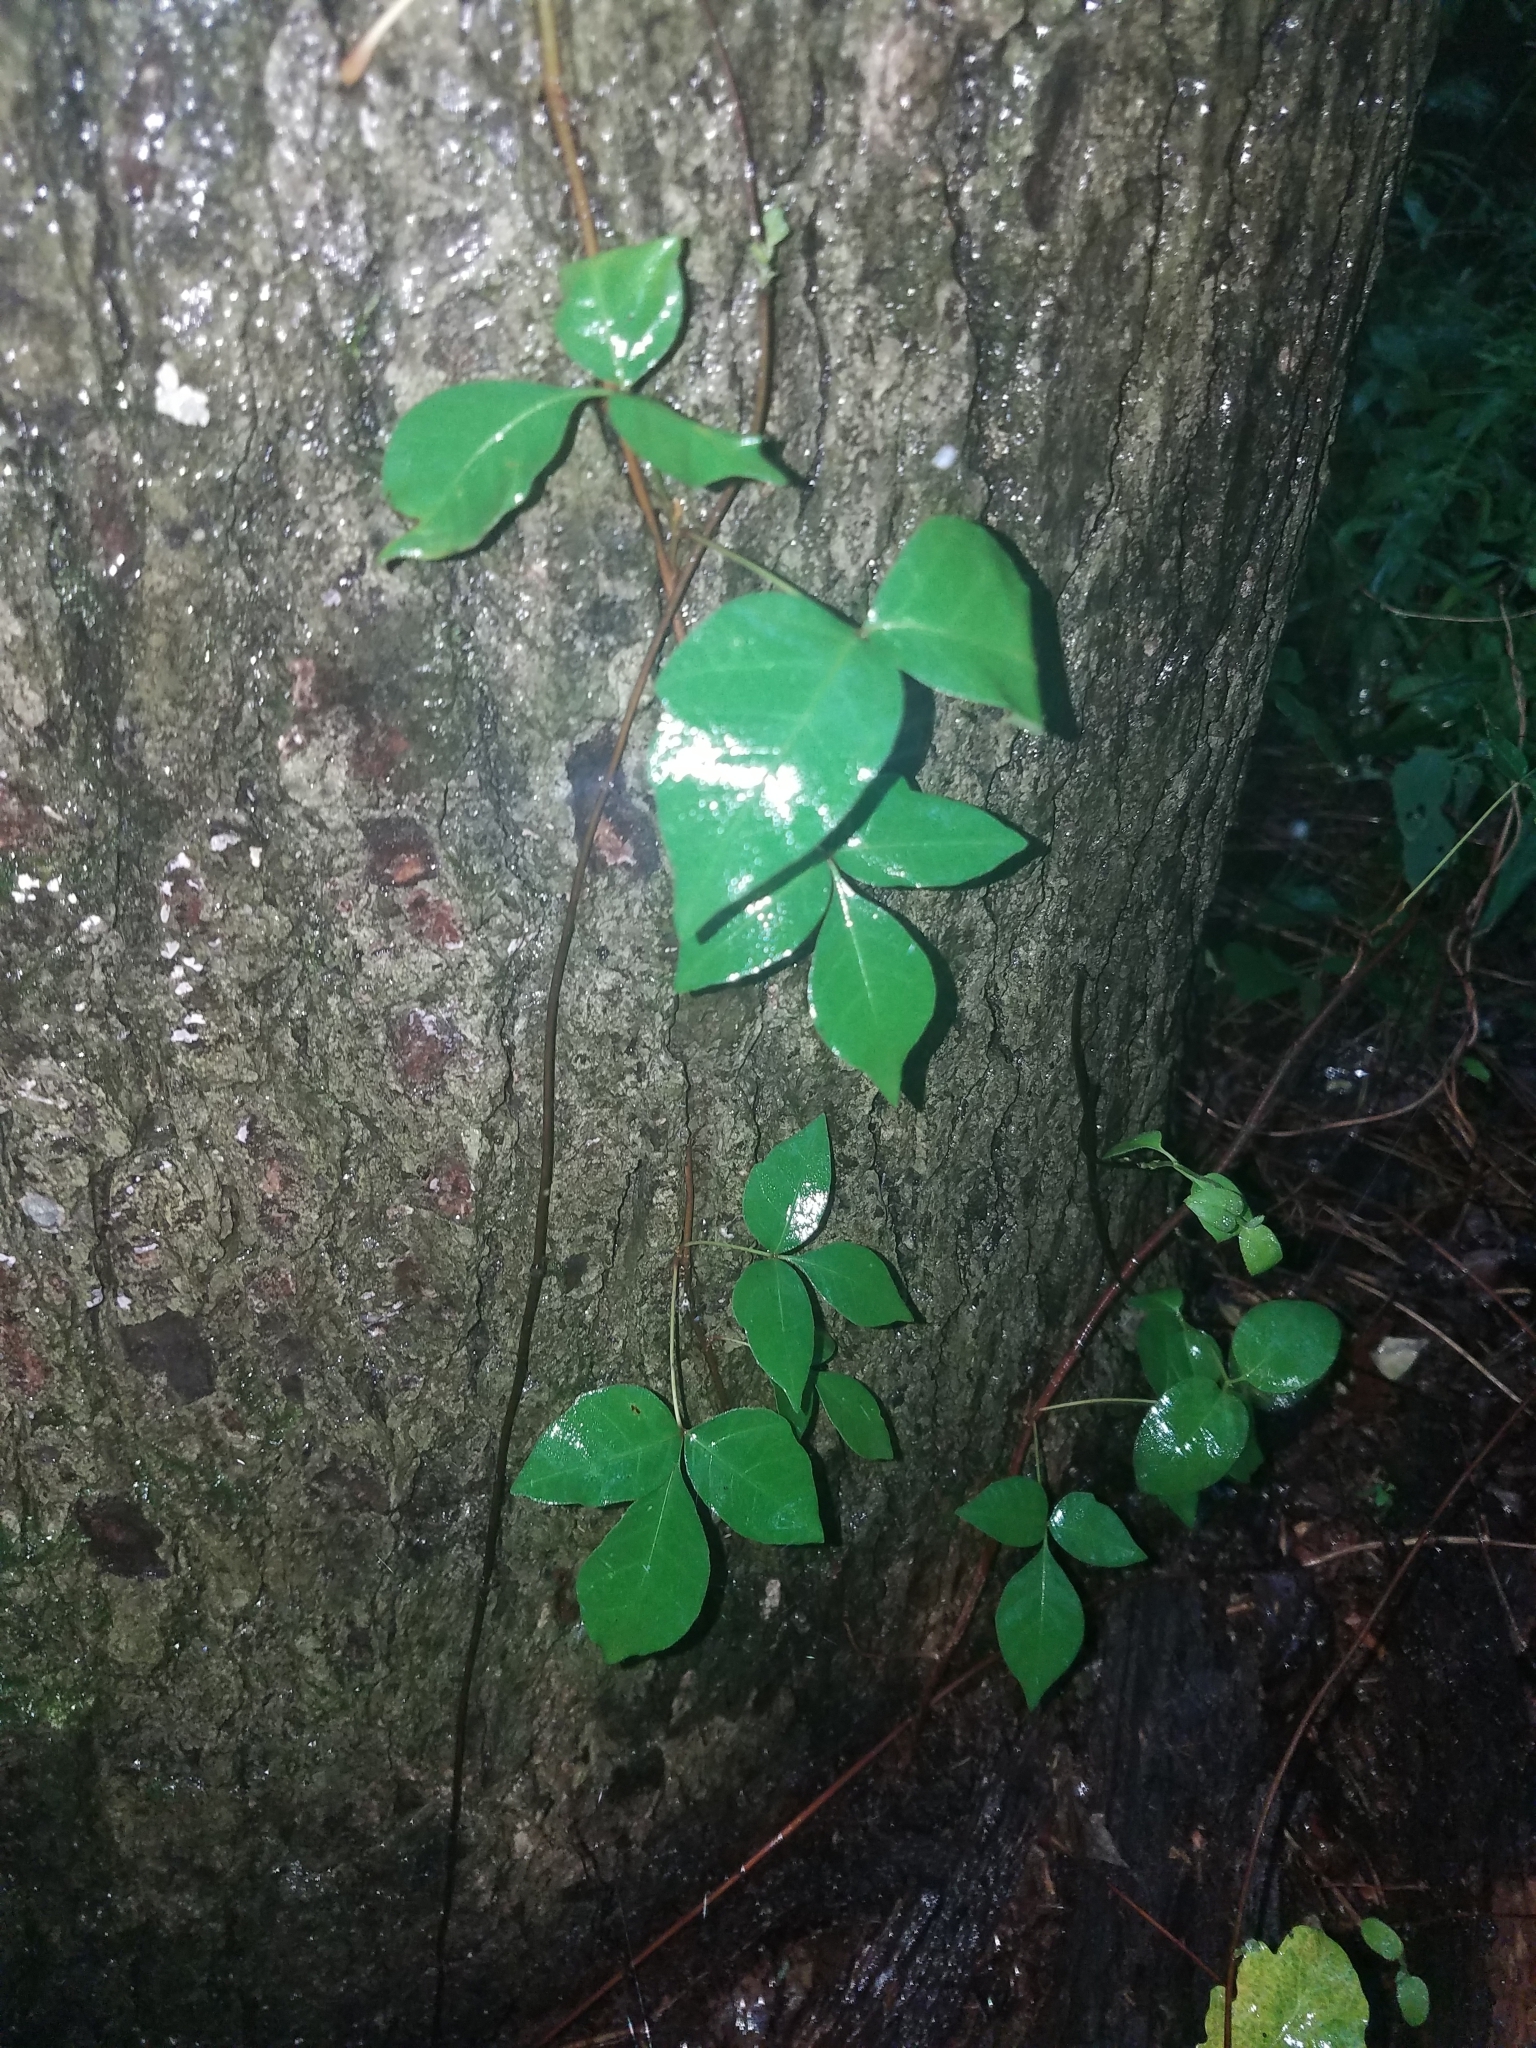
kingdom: Plantae
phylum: Tracheophyta
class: Magnoliopsida
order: Sapindales
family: Anacardiaceae
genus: Toxicodendron
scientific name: Toxicodendron radicans
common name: Poison ivy
